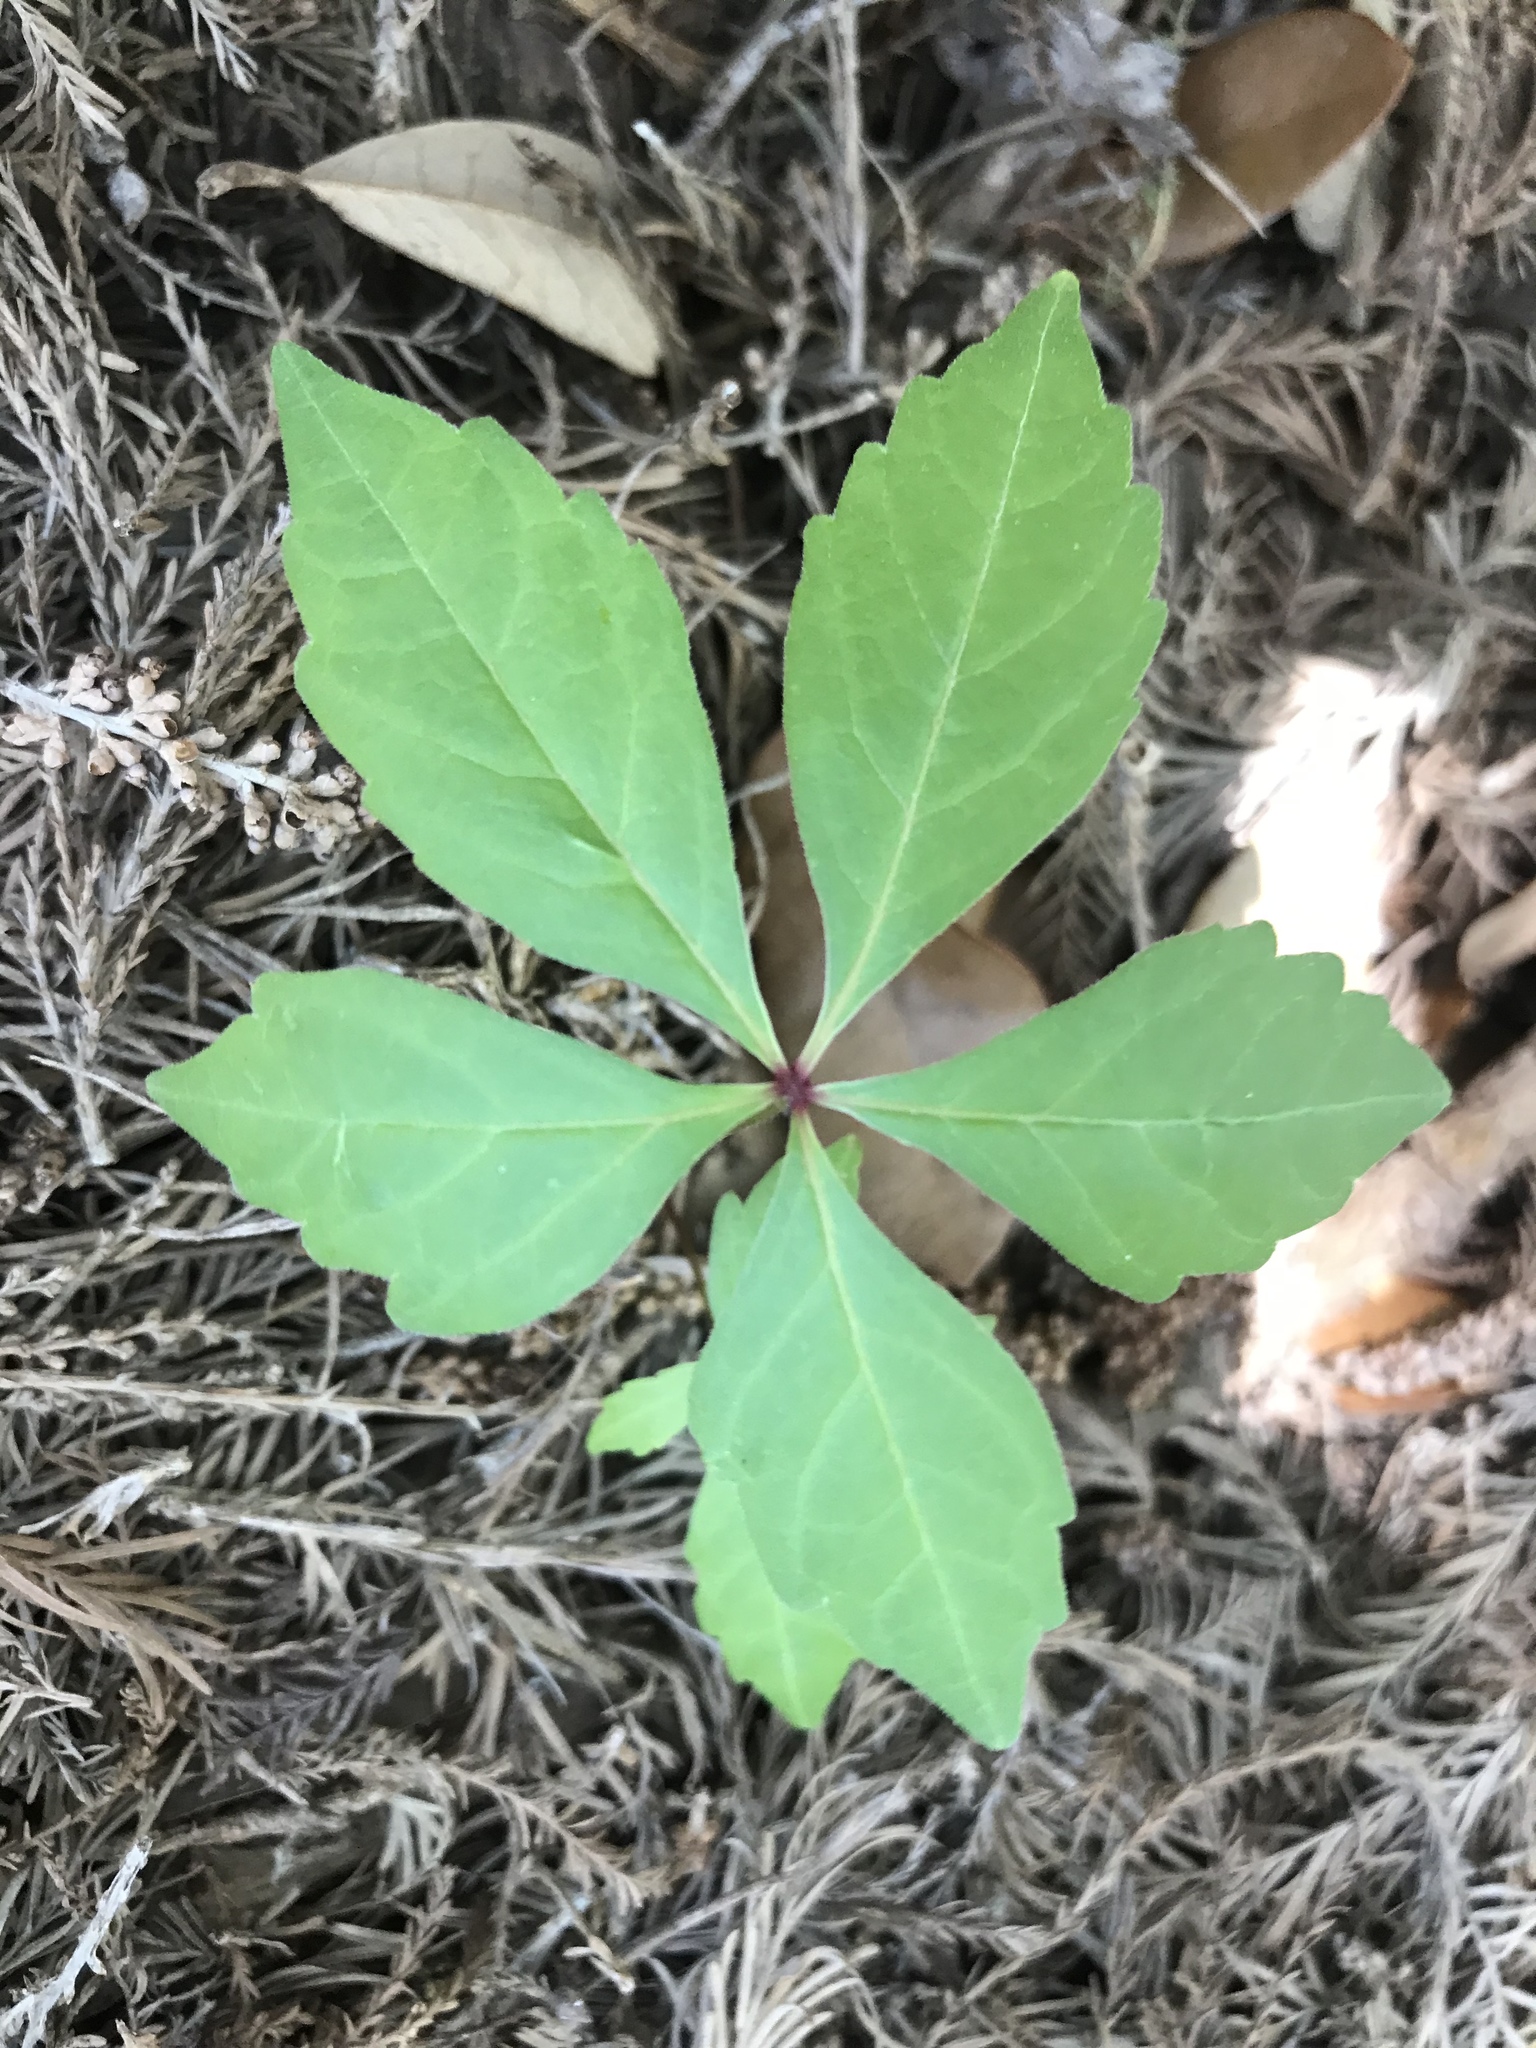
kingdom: Plantae
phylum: Tracheophyta
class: Magnoliopsida
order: Vitales
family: Vitaceae
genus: Parthenocissus
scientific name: Parthenocissus quinquefolia
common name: Virginia-creeper
